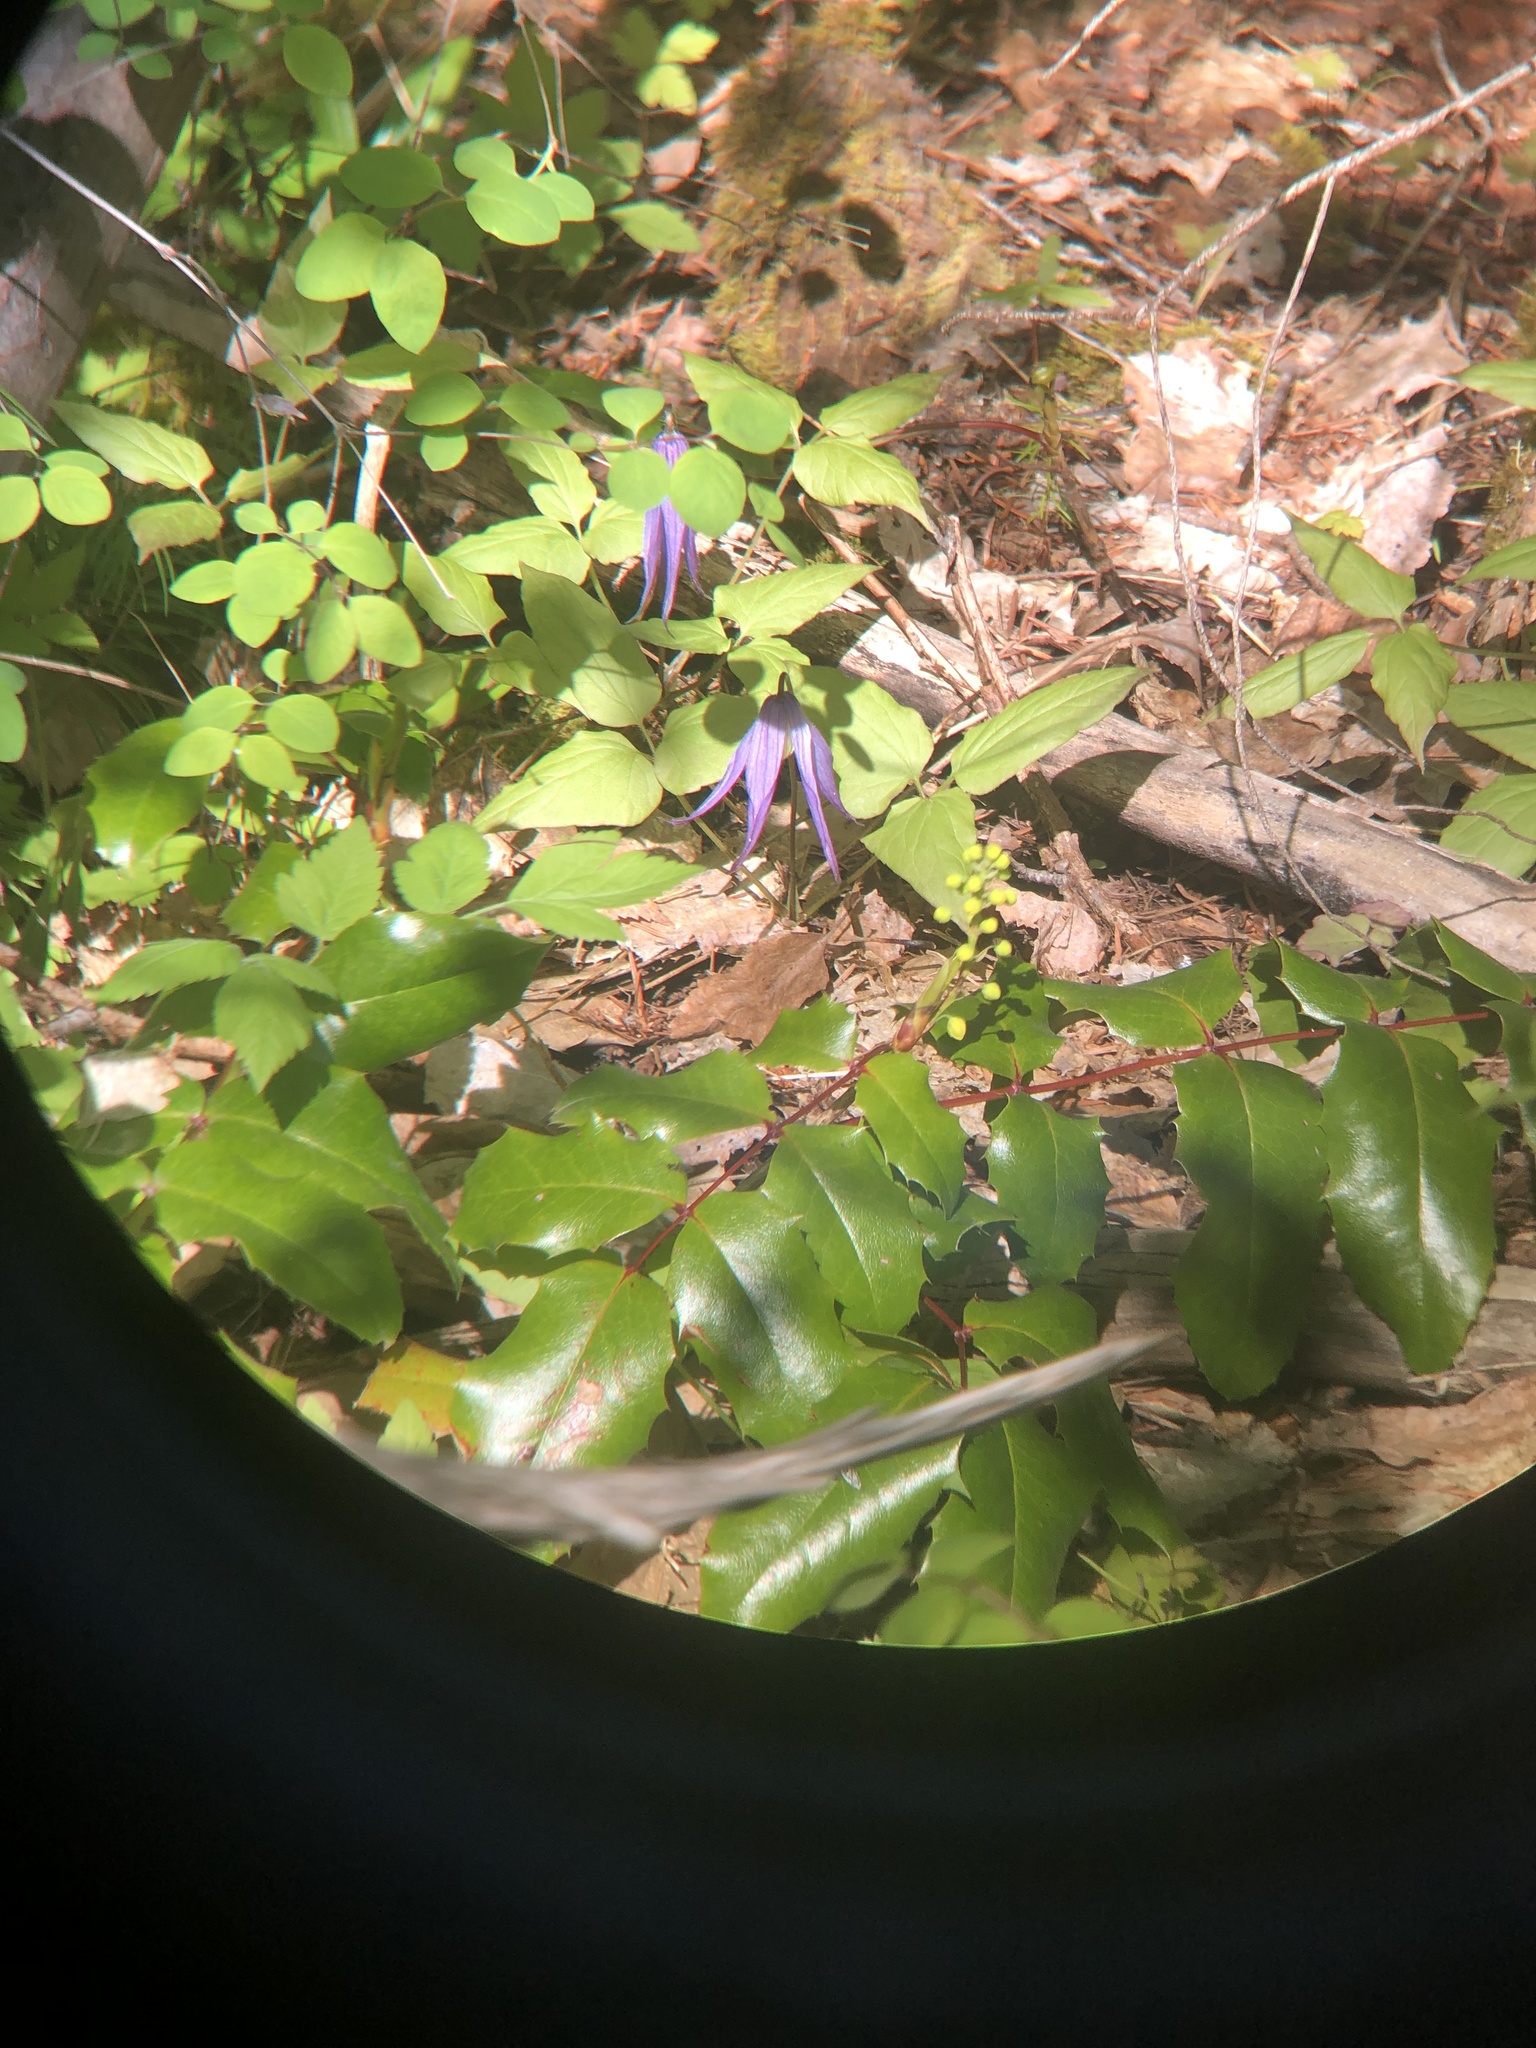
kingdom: Plantae
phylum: Tracheophyta
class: Magnoliopsida
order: Ranunculales
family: Ranunculaceae
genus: Clematis
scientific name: Clematis occidentalis
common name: Purple clematis
